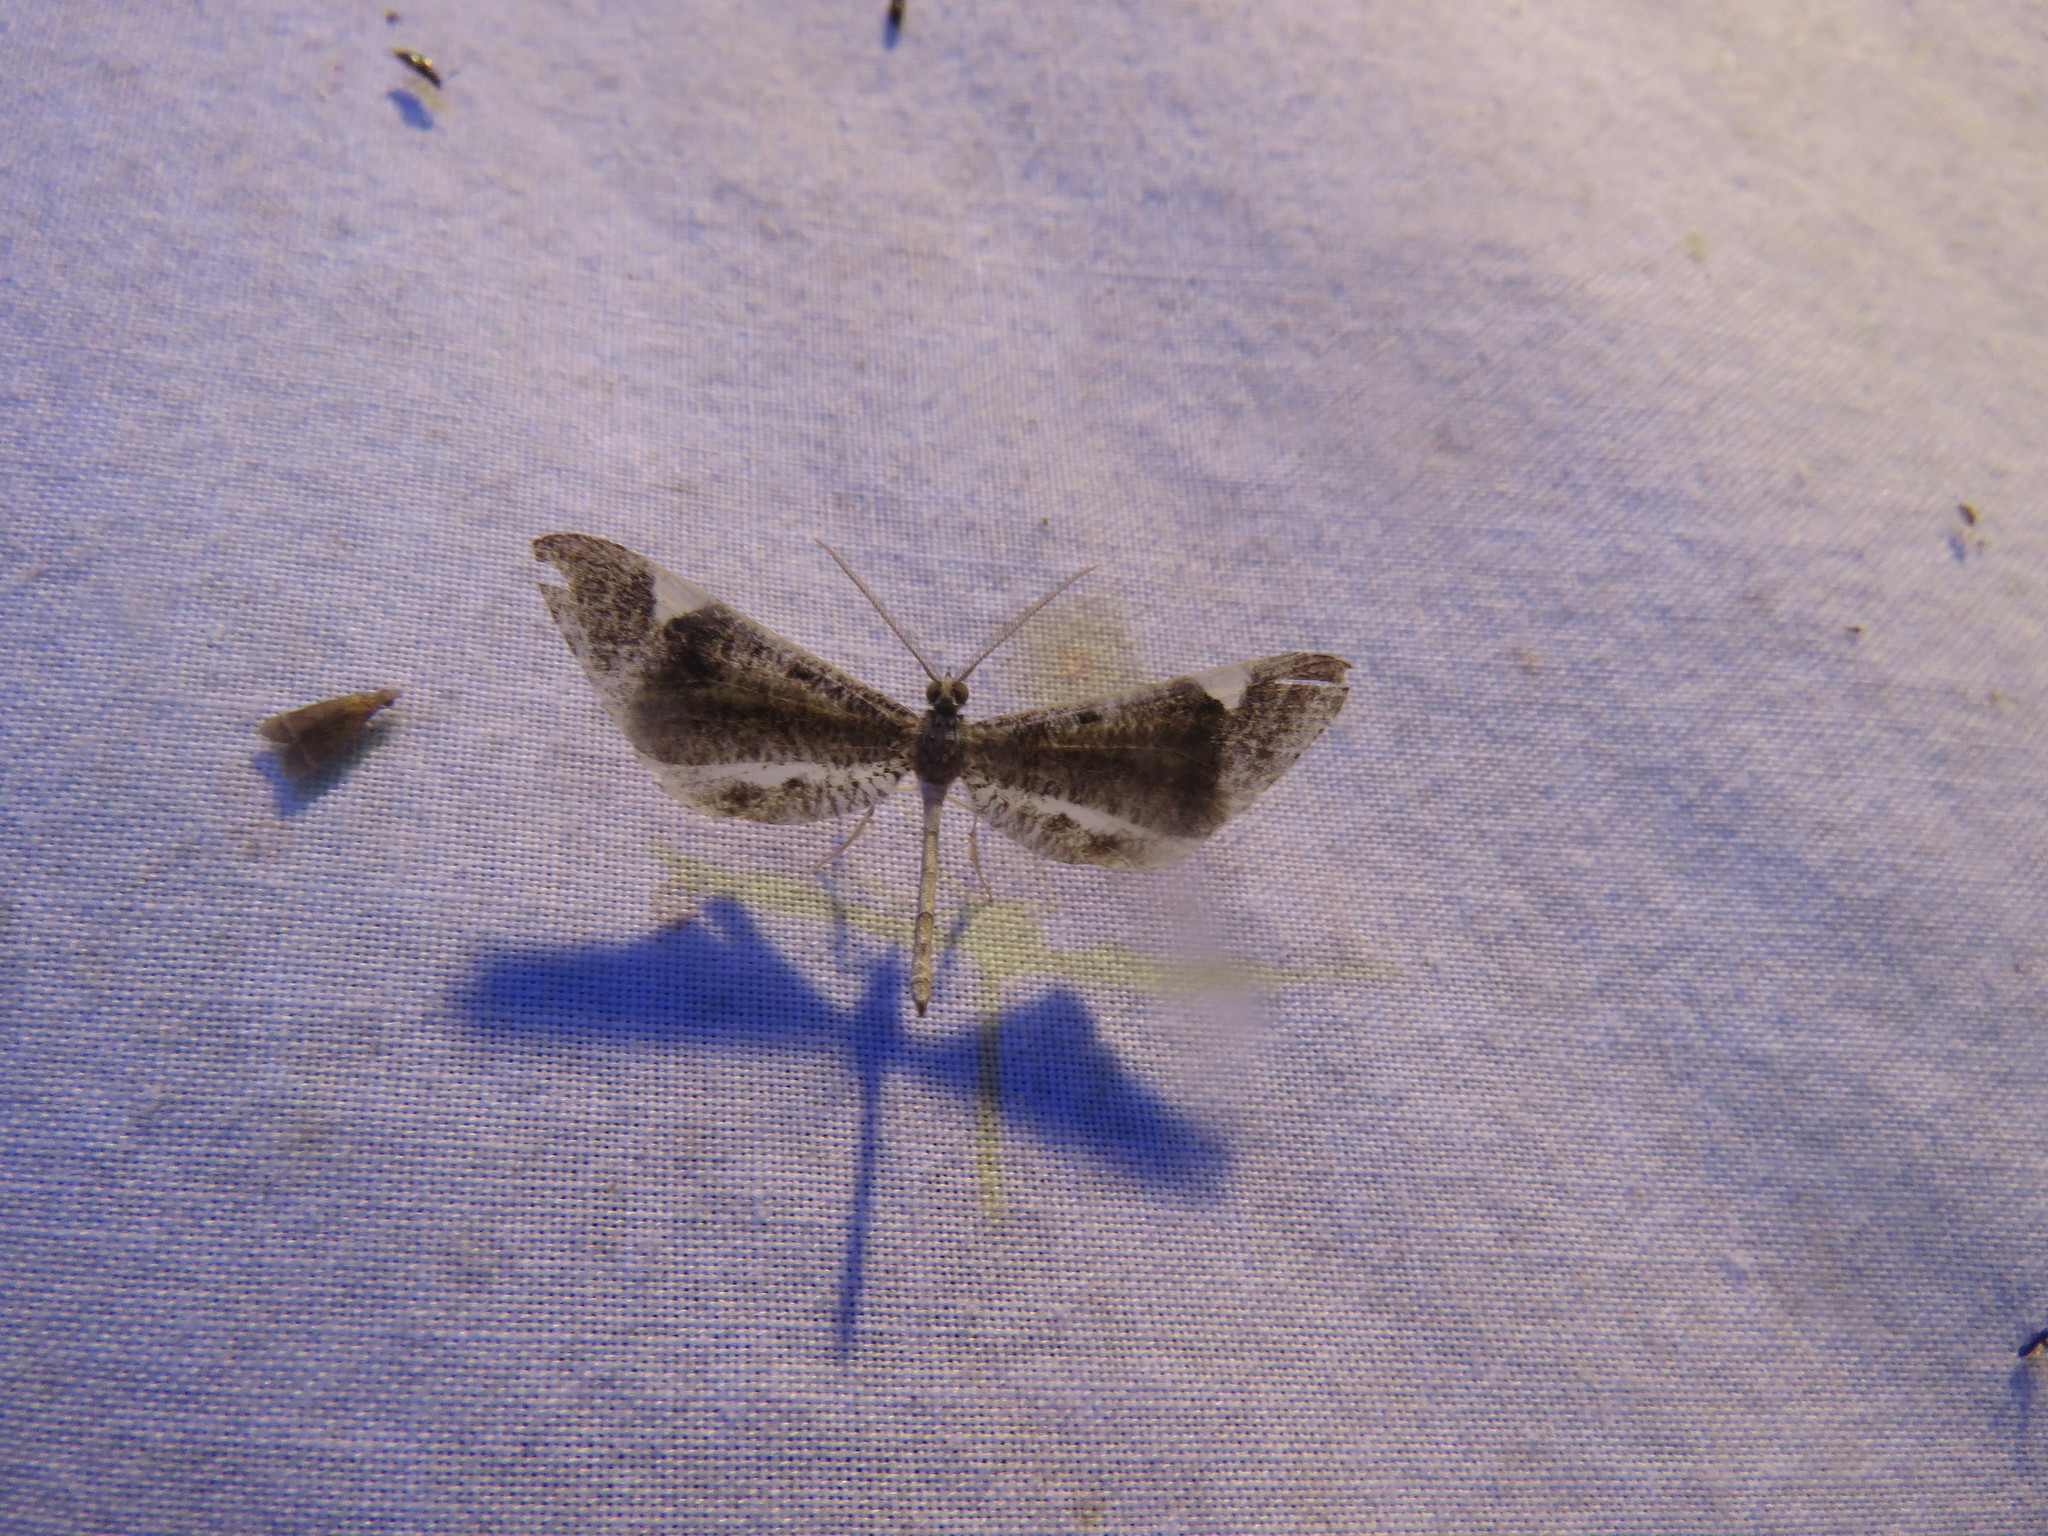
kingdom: Animalia
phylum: Arthropoda
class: Insecta
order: Lepidoptera
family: Hedylidae
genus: Macrosoma
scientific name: Macrosoma conifera
